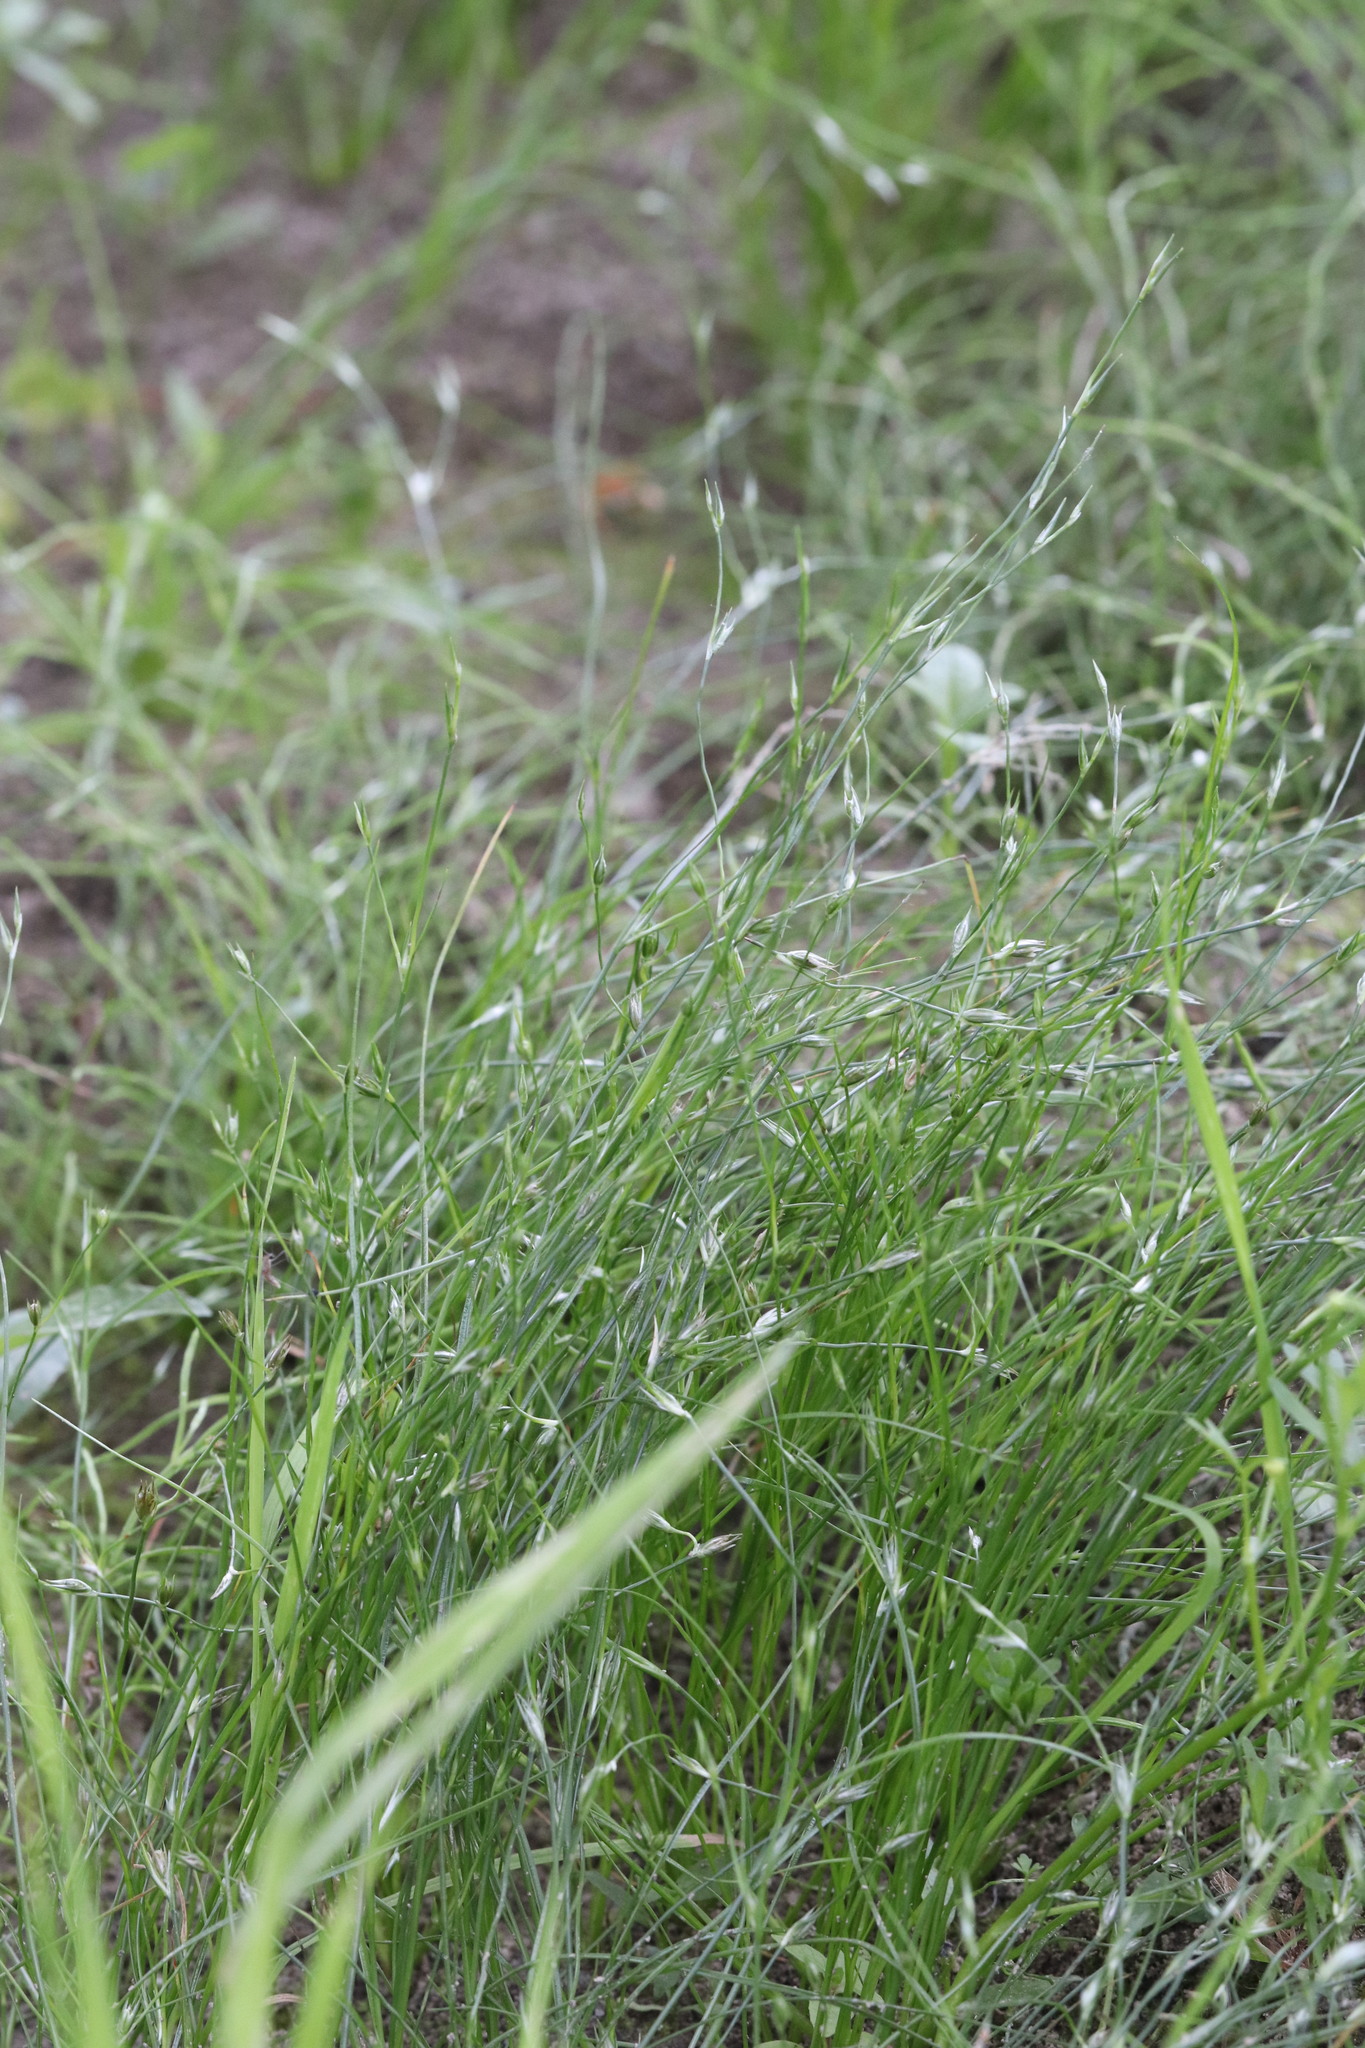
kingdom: Plantae
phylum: Tracheophyta
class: Liliopsida
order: Poales
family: Juncaceae
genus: Juncus
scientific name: Juncus bufonius
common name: Toad rush
